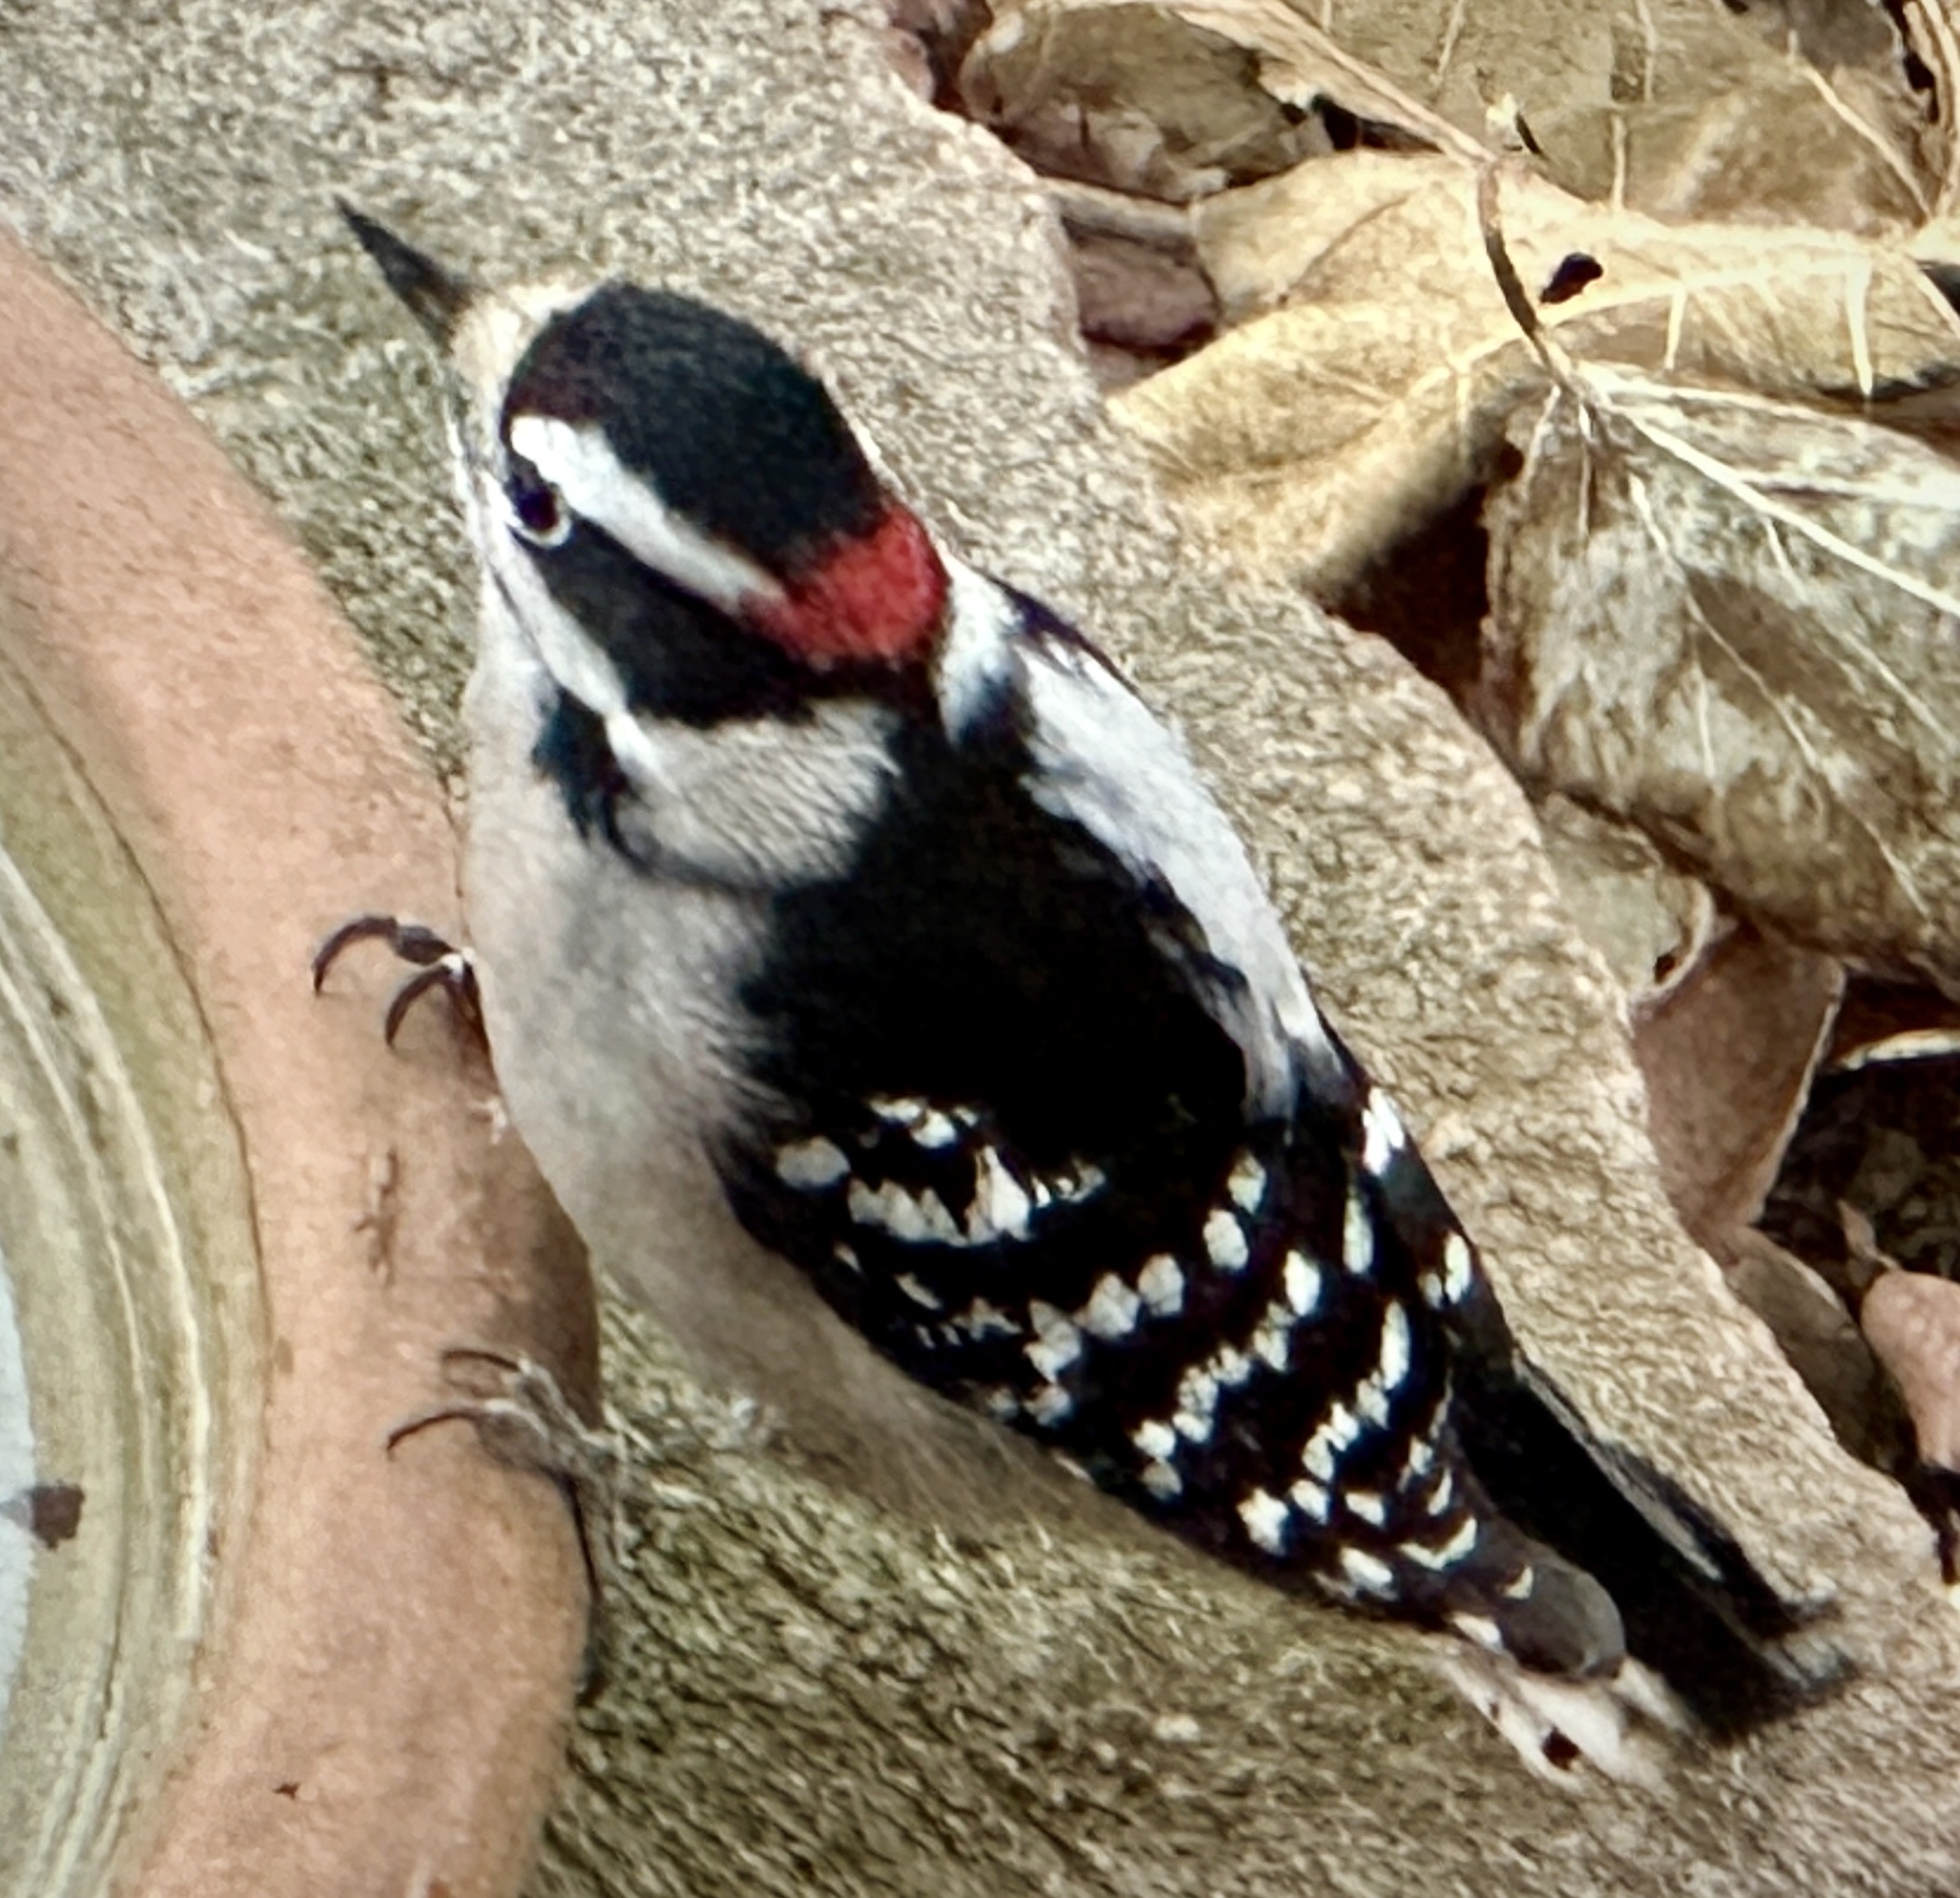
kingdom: Animalia
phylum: Chordata
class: Aves
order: Piciformes
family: Picidae
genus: Dryobates
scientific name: Dryobates pubescens
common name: Downy woodpecker
